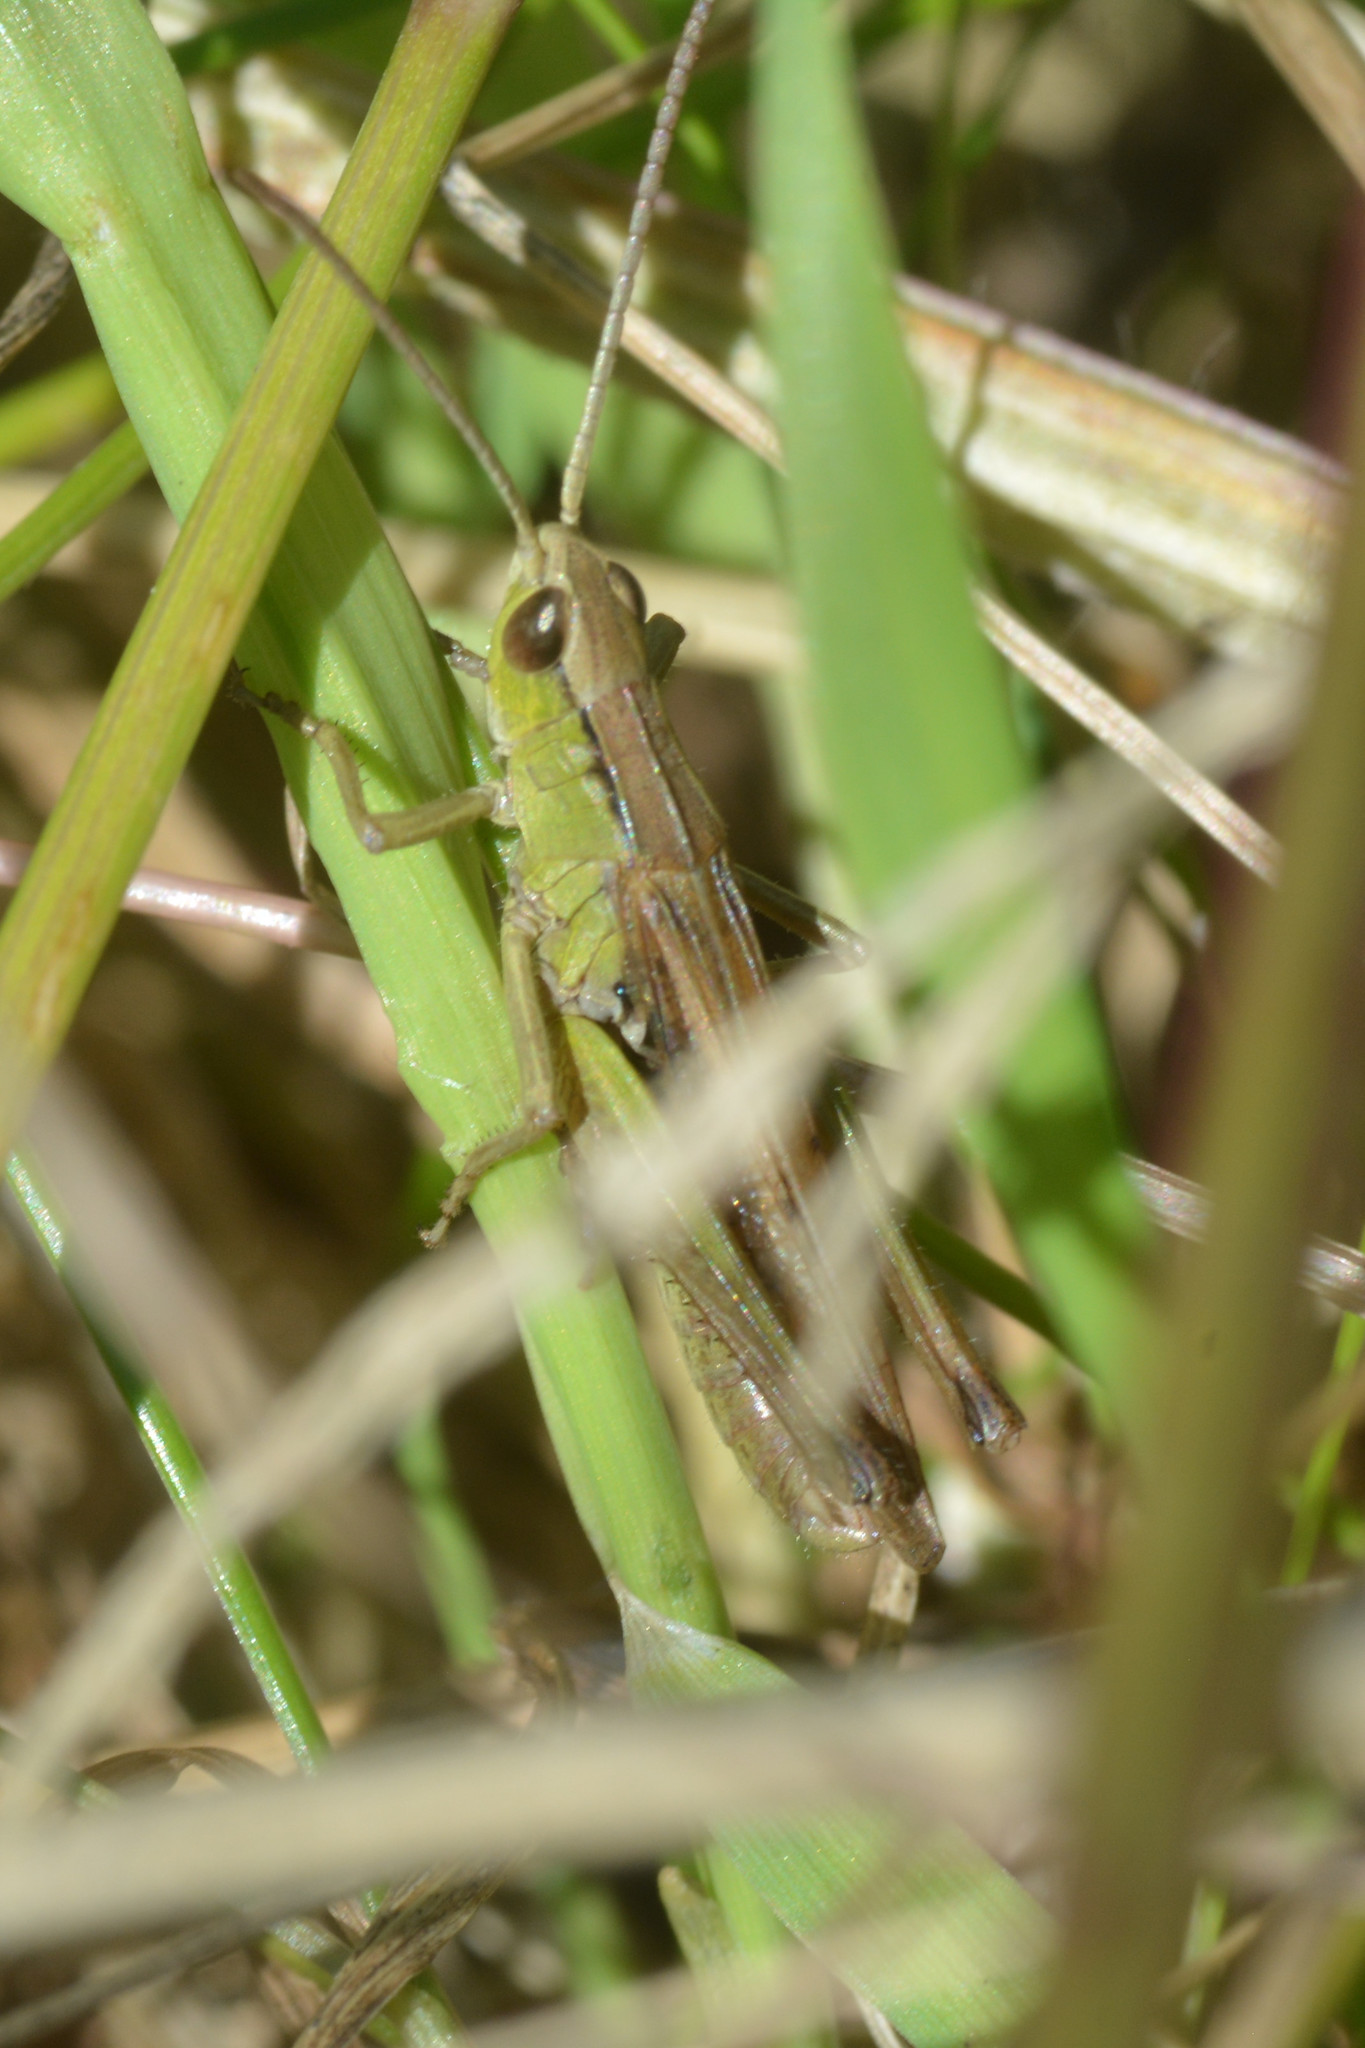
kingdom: Animalia
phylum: Arthropoda
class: Insecta
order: Orthoptera
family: Acrididae
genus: Chorthippus
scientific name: Chorthippus albomarginatus
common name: Lesser marsh grasshopper
